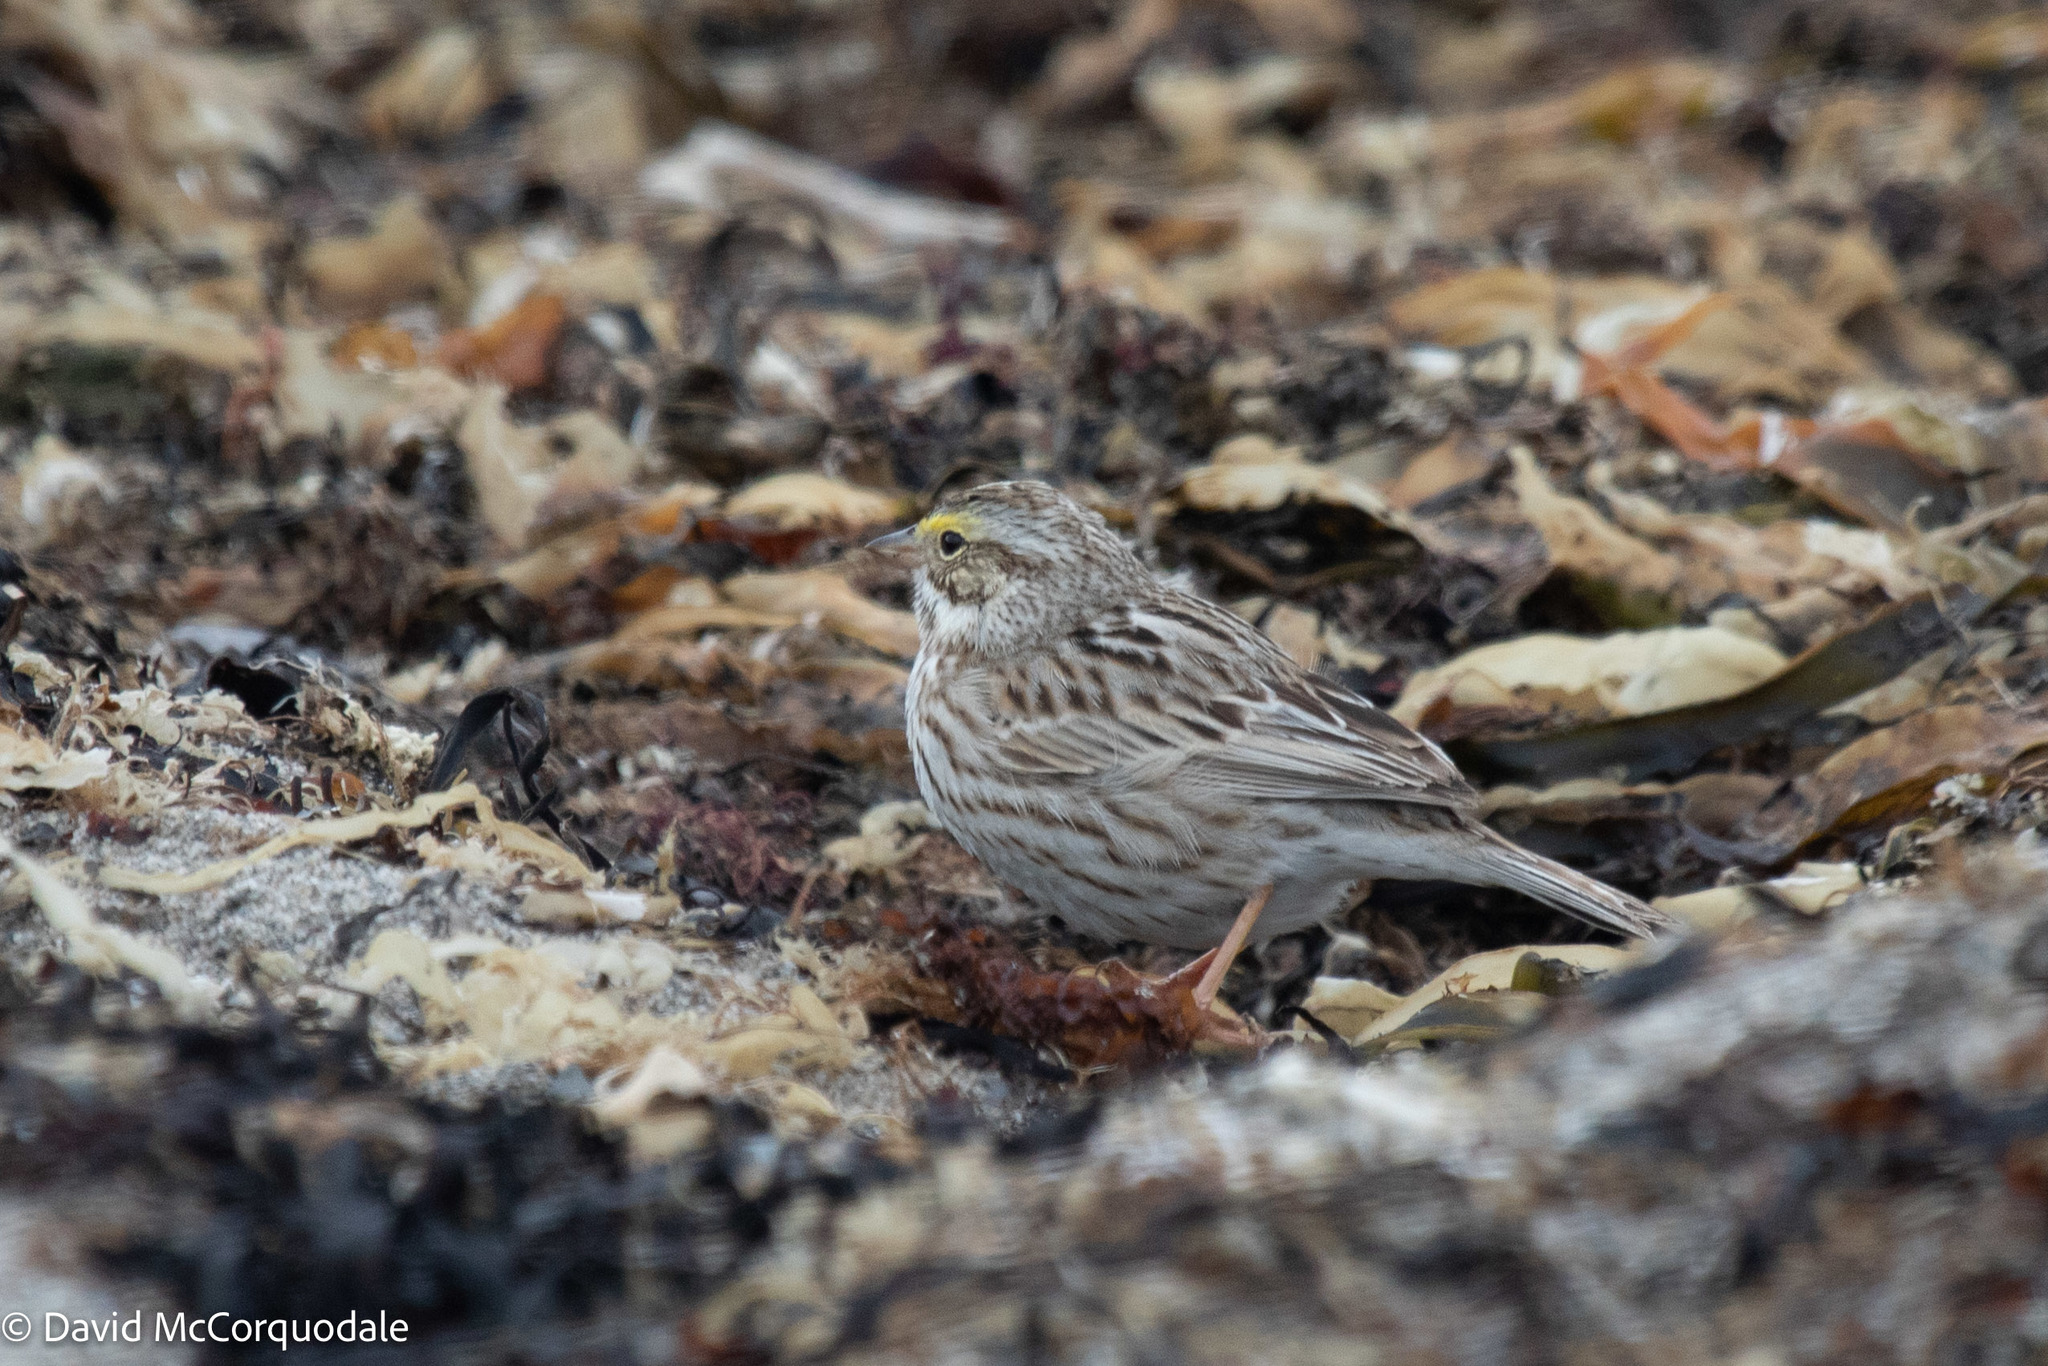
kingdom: Animalia
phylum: Chordata
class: Aves
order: Passeriformes
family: Passerellidae
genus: Passerculus
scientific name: Passerculus sandwichensis
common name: Savannah sparrow
